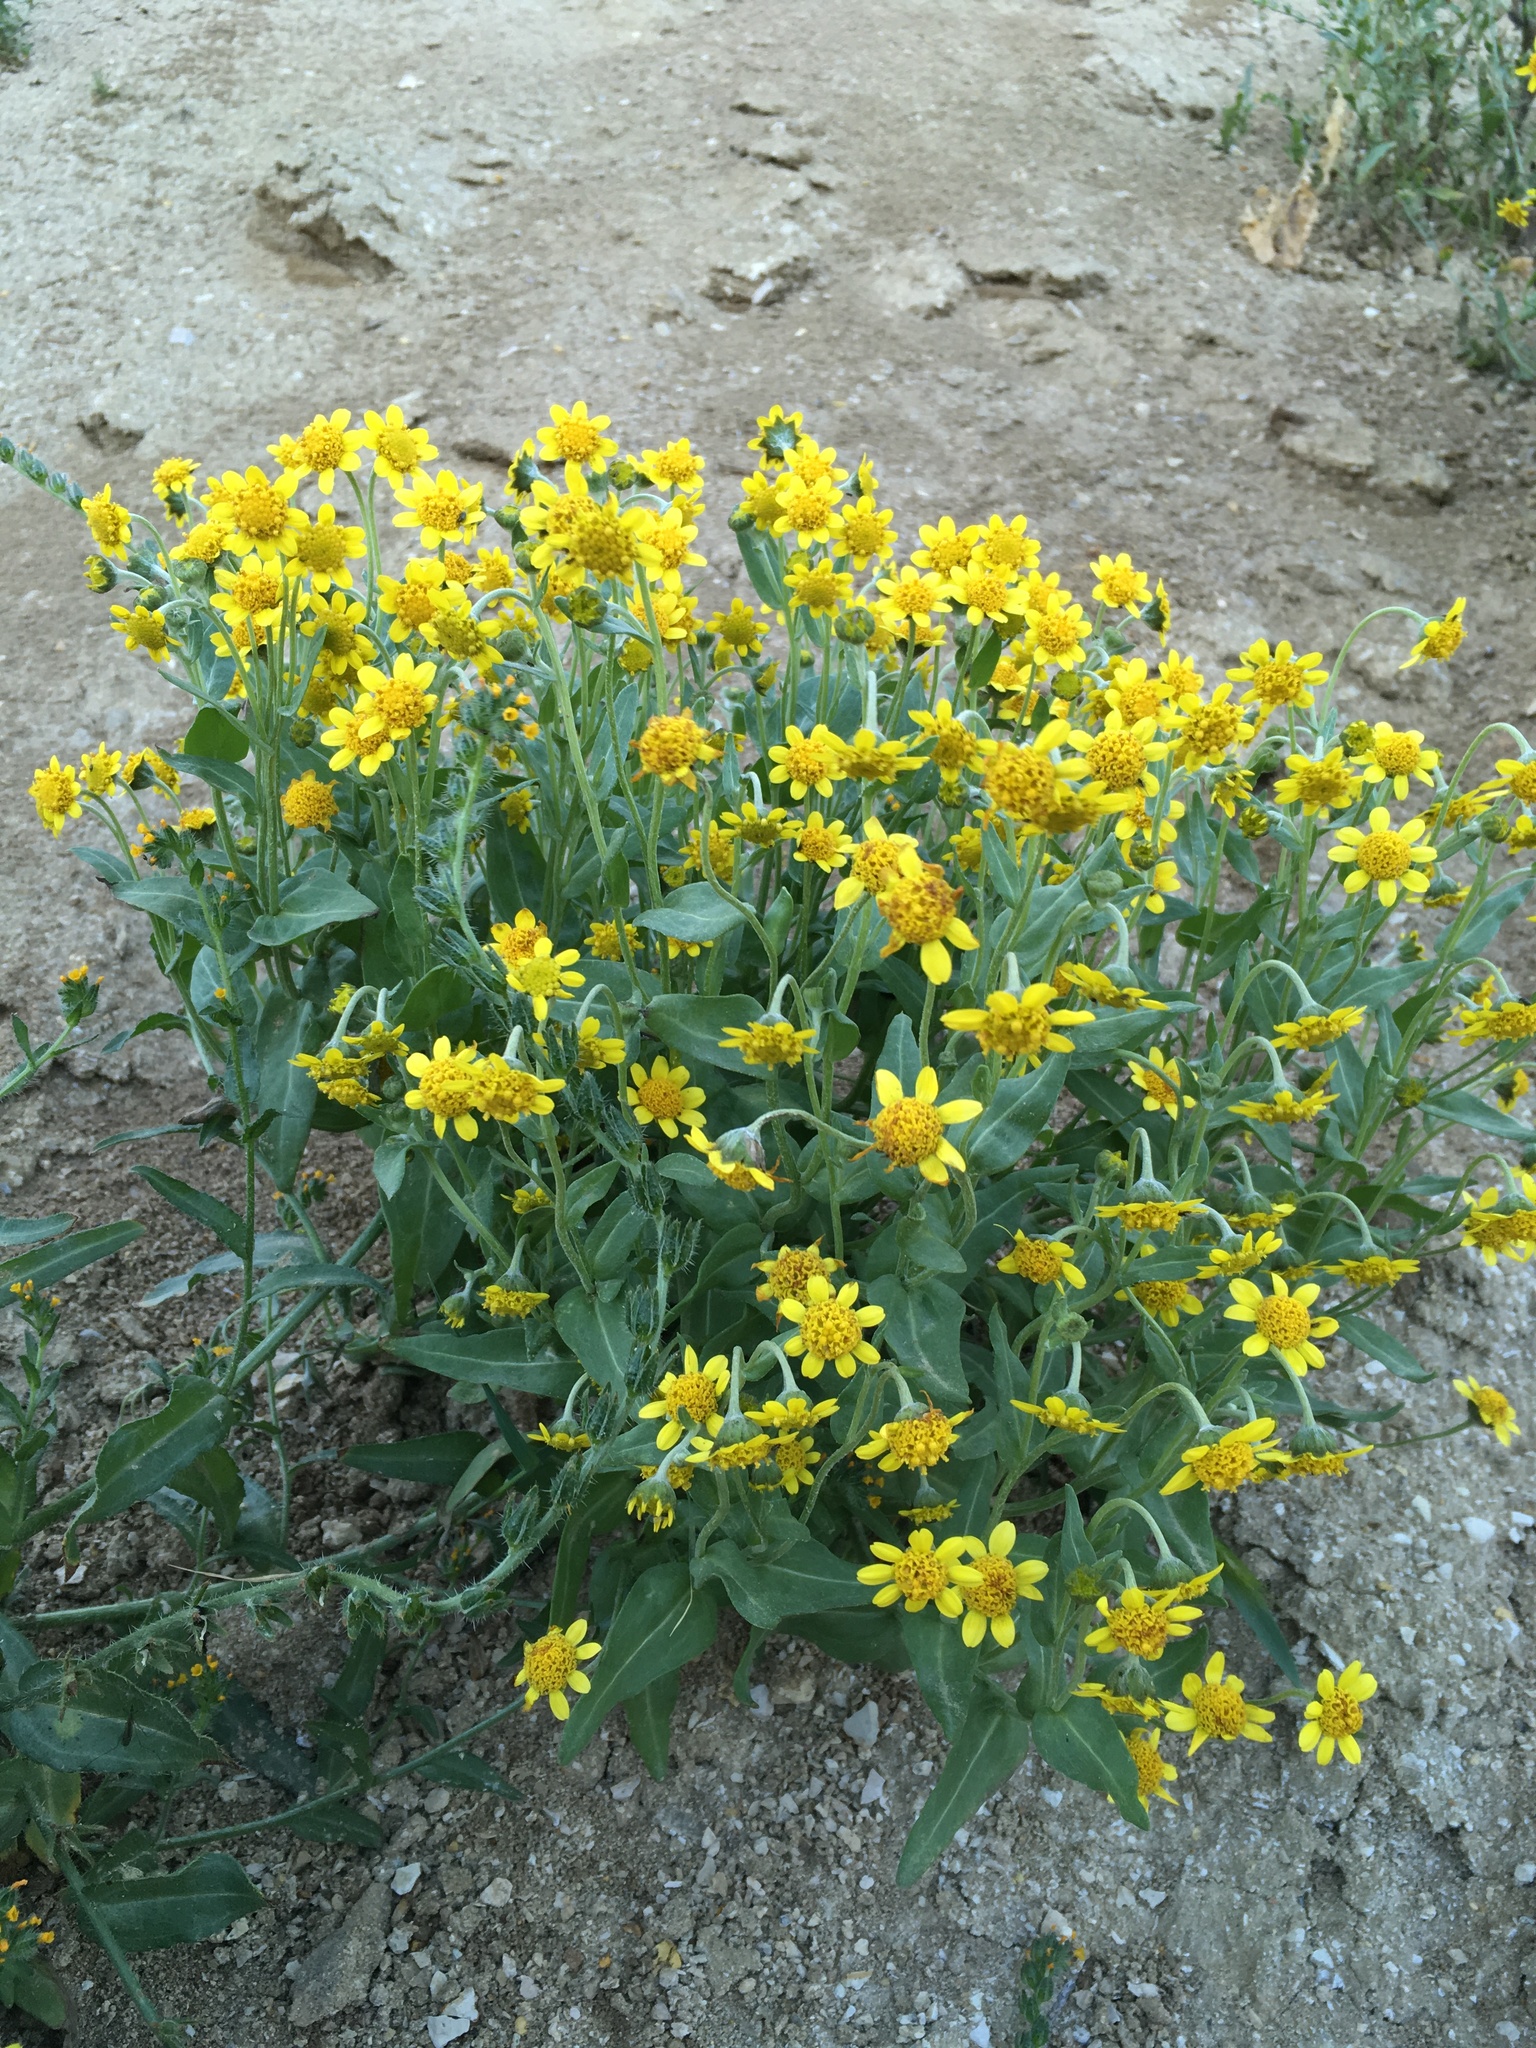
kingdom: Plantae
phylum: Tracheophyta
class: Magnoliopsida
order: Asterales
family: Asteraceae
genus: Monolopia
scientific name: Monolopia stricta
